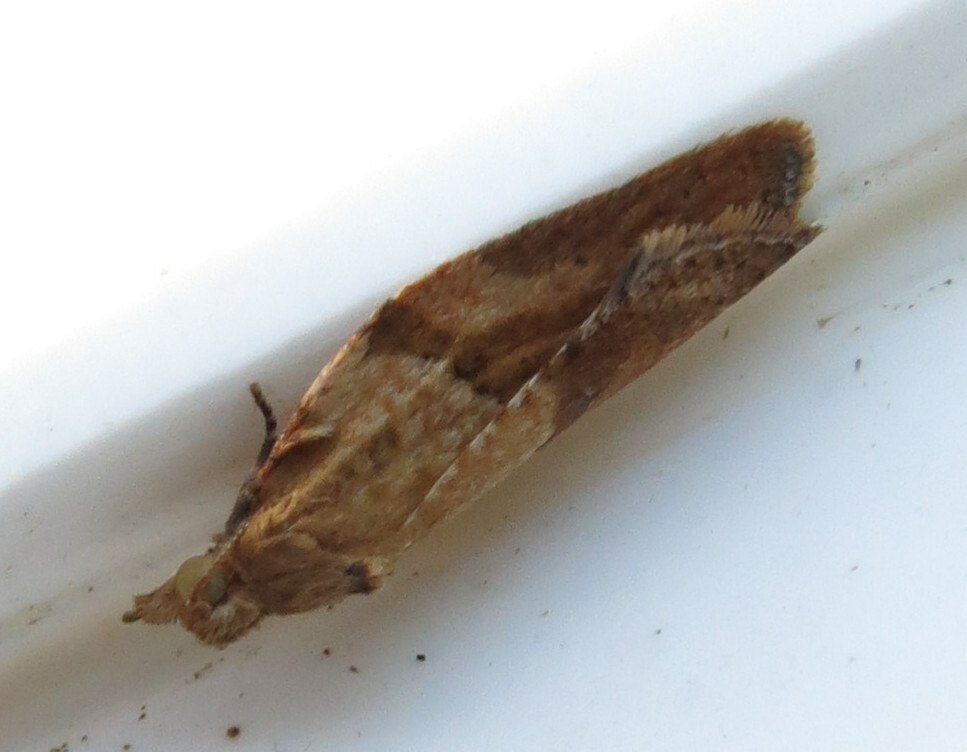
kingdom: Animalia
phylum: Arthropoda
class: Insecta
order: Lepidoptera
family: Tortricidae
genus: Epiphyas
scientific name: Epiphyas postvittana
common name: Light brown apple moth
